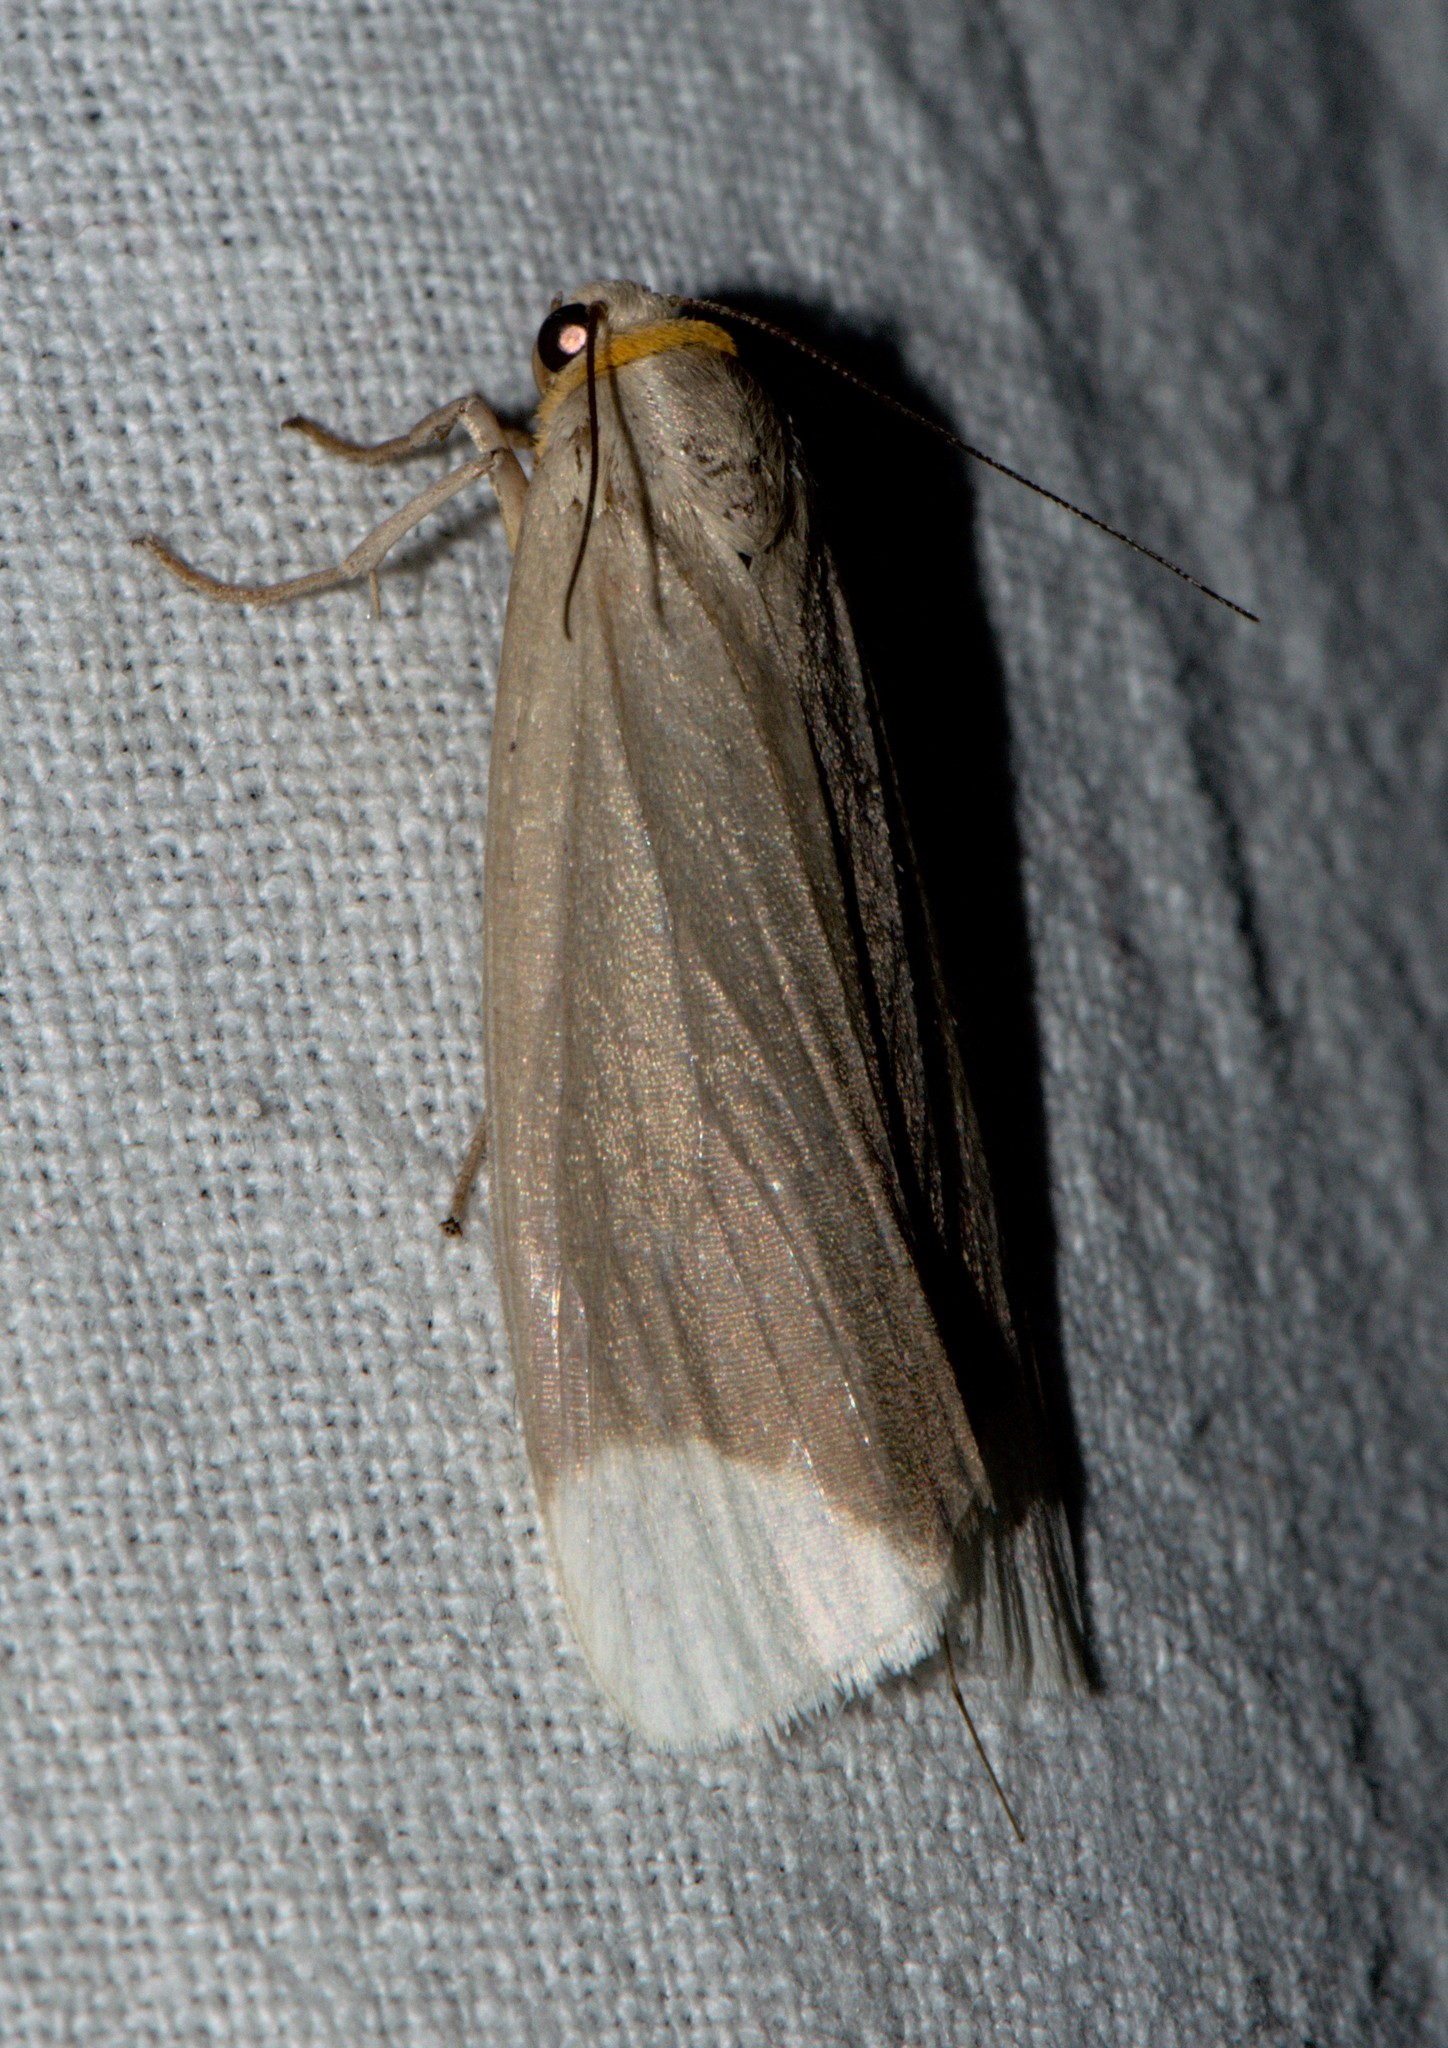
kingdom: Animalia
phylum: Arthropoda
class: Insecta
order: Lepidoptera
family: Erebidae
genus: Sidyma
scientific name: Sidyma albifinis
